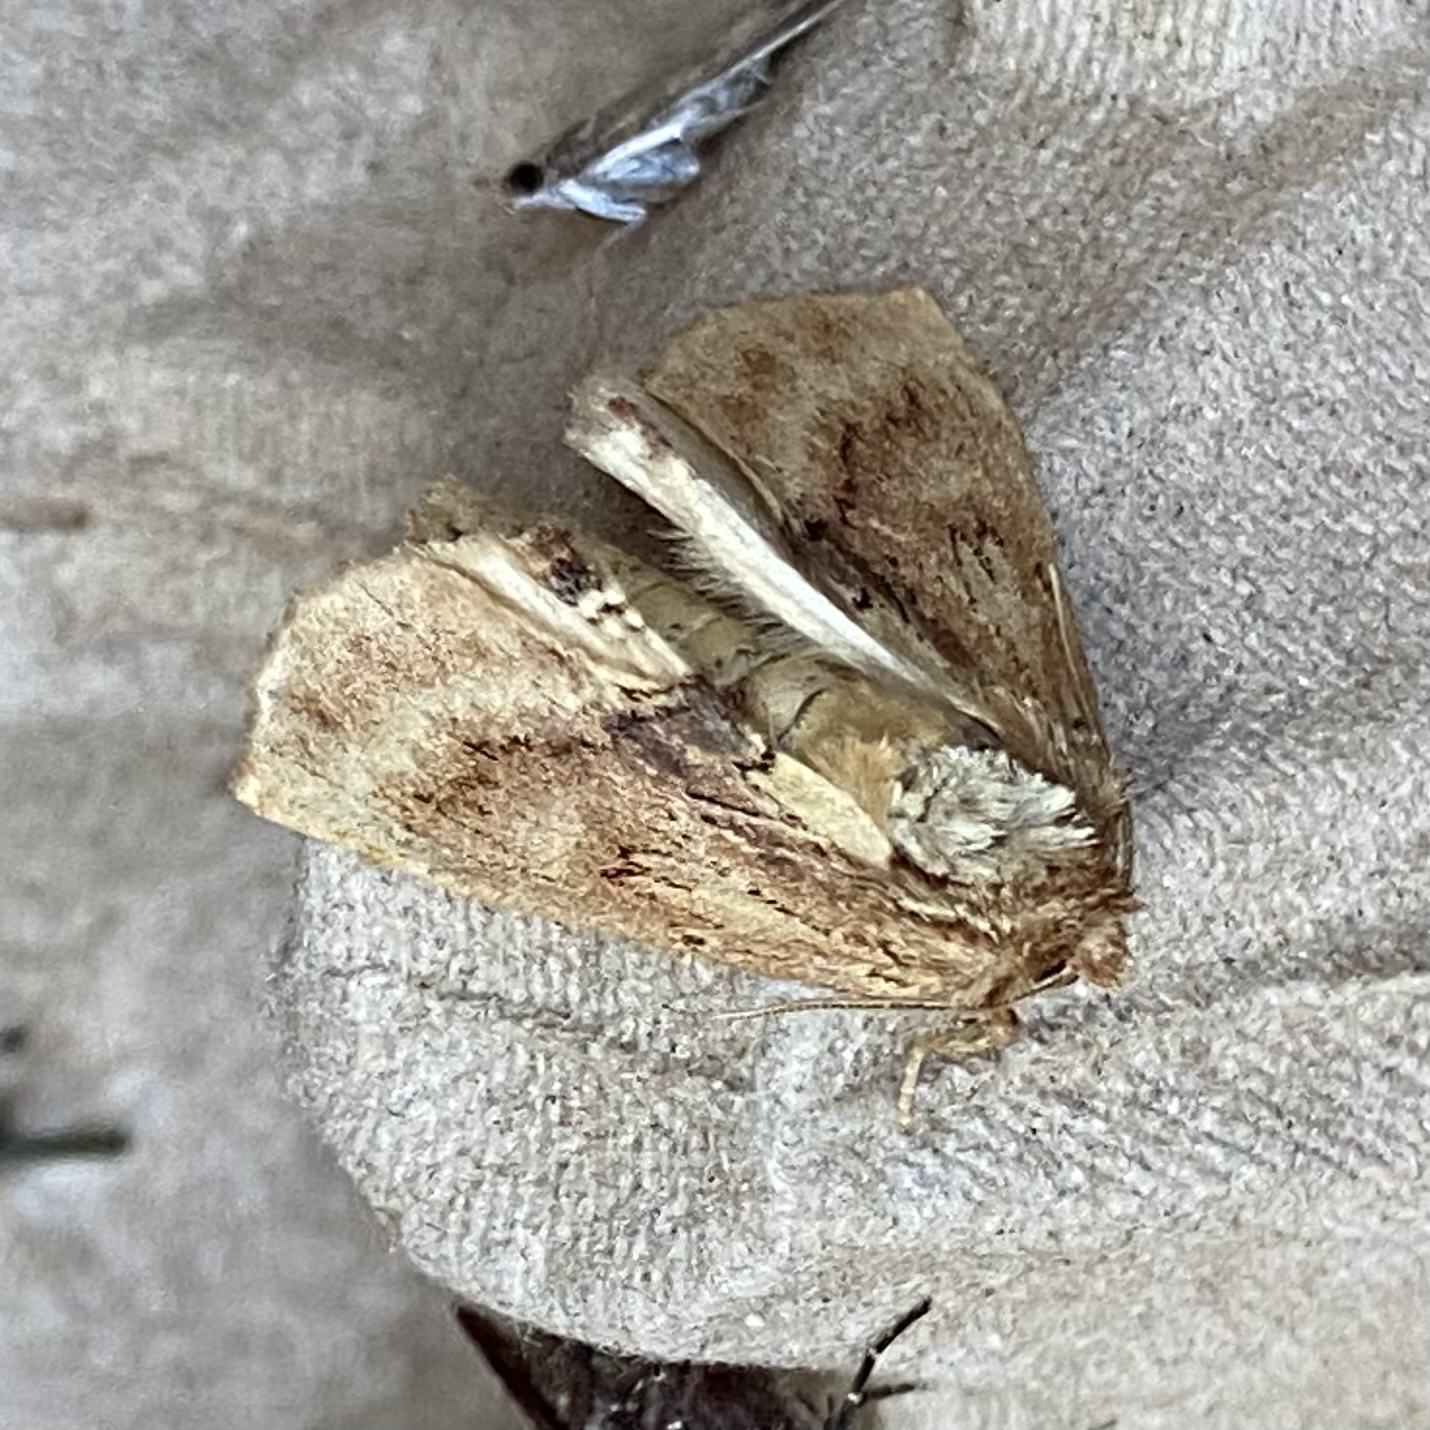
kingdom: Animalia
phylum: Arthropoda
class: Insecta
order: Lepidoptera
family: Notodontidae
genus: Ptilodon
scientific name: Ptilodon capucina
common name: Coxcomb prominent
